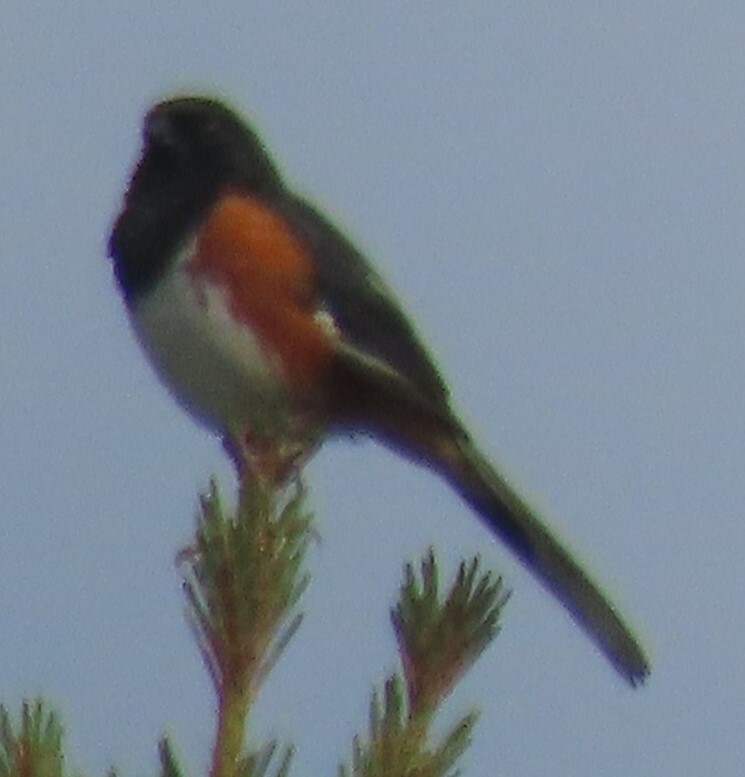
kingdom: Animalia
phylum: Chordata
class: Aves
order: Passeriformes
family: Passerellidae
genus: Pipilo
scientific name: Pipilo erythrophthalmus
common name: Eastern towhee
